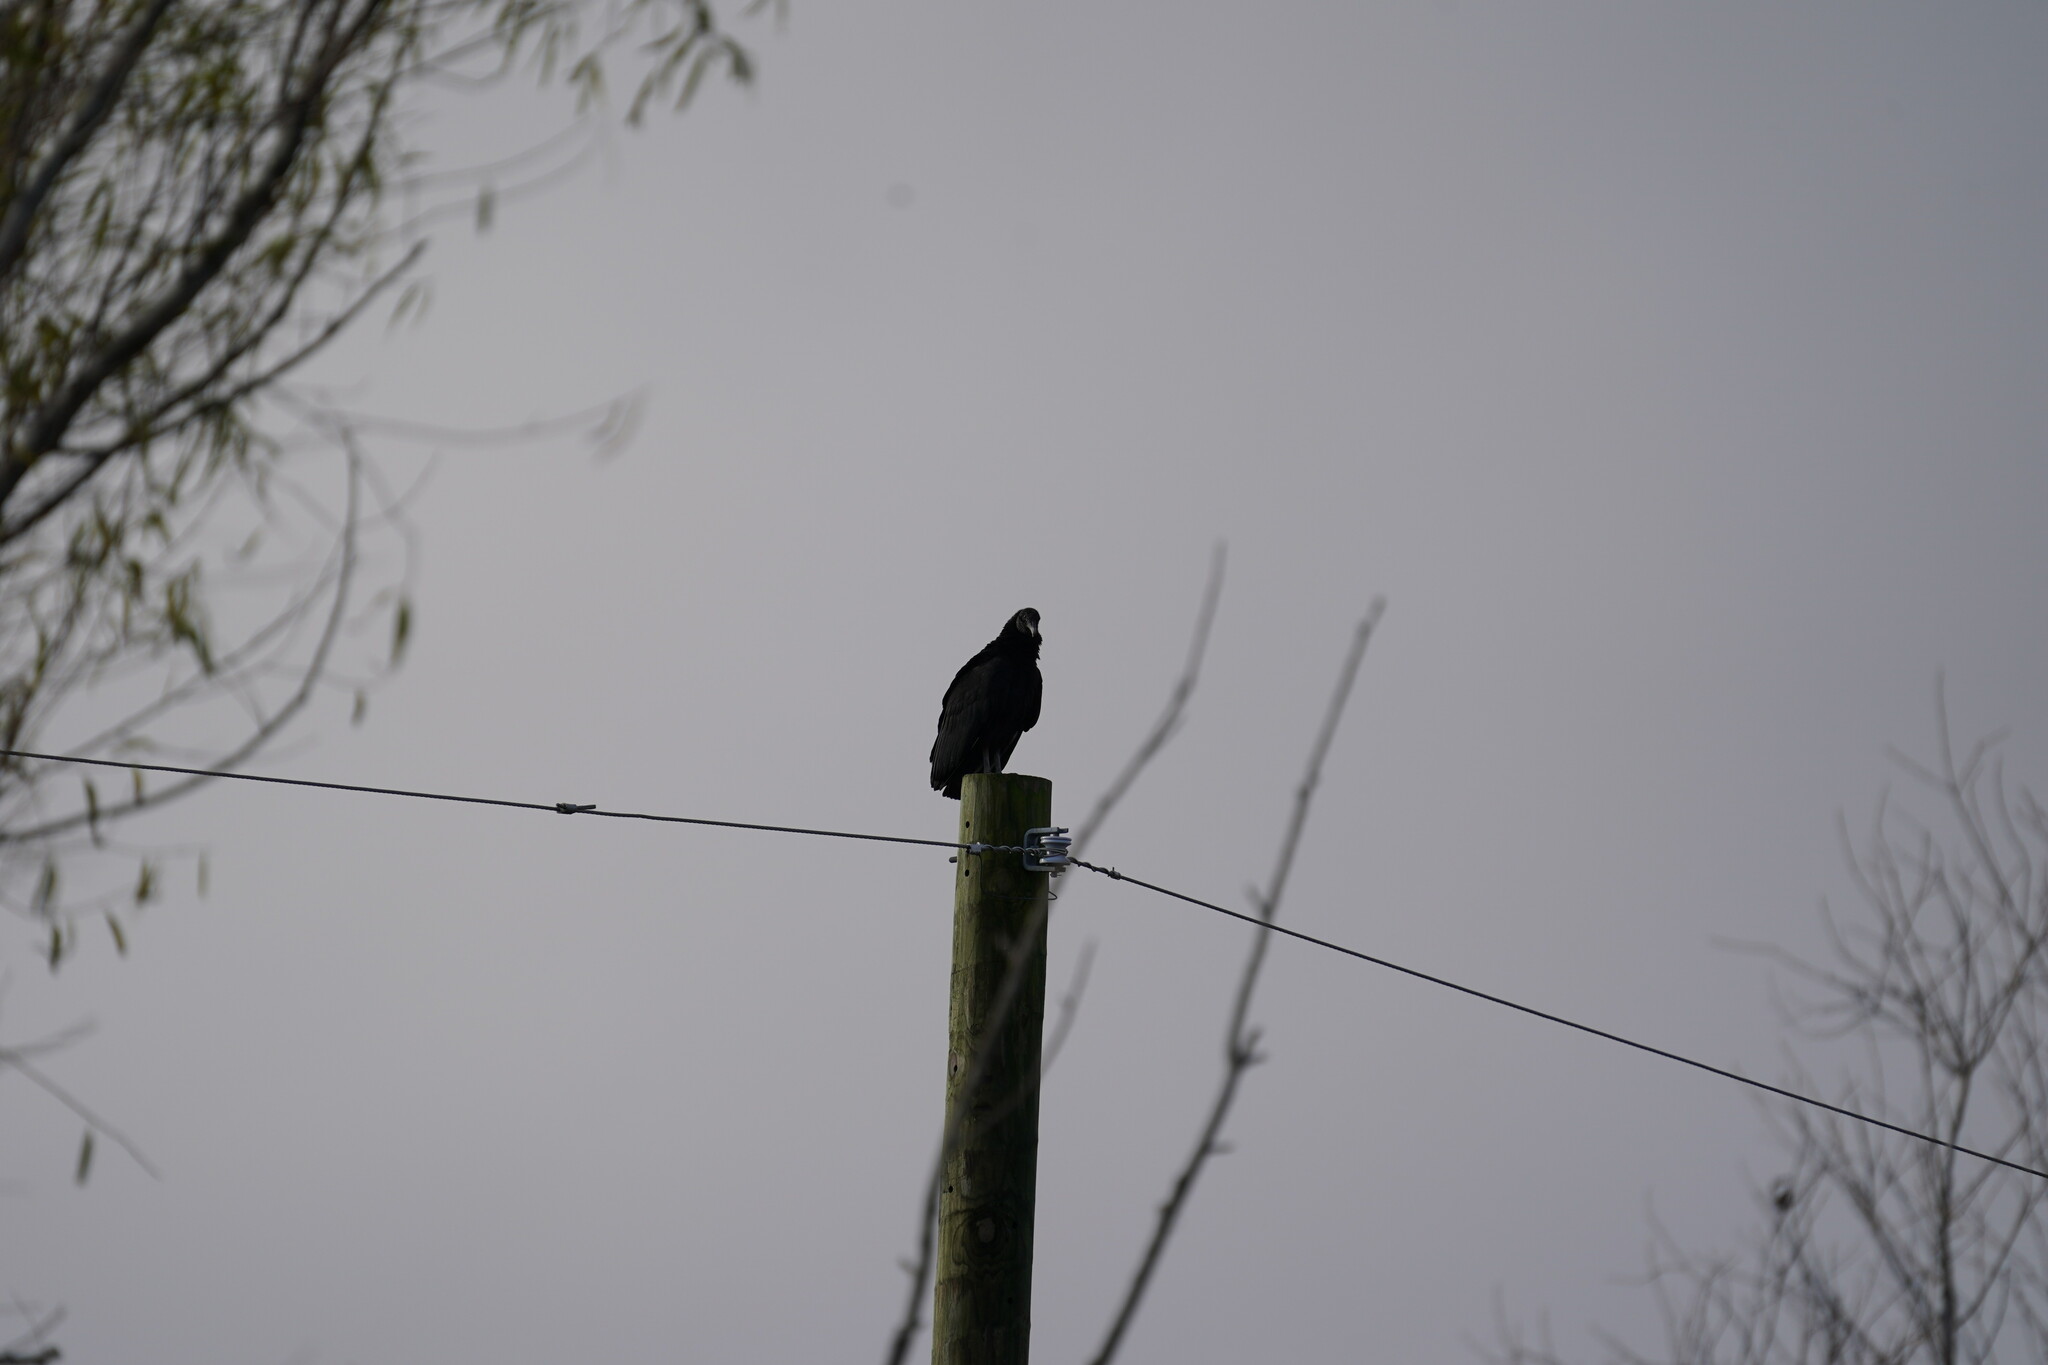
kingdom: Animalia
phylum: Chordata
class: Aves
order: Accipitriformes
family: Cathartidae
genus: Coragyps
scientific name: Coragyps atratus
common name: Black vulture
